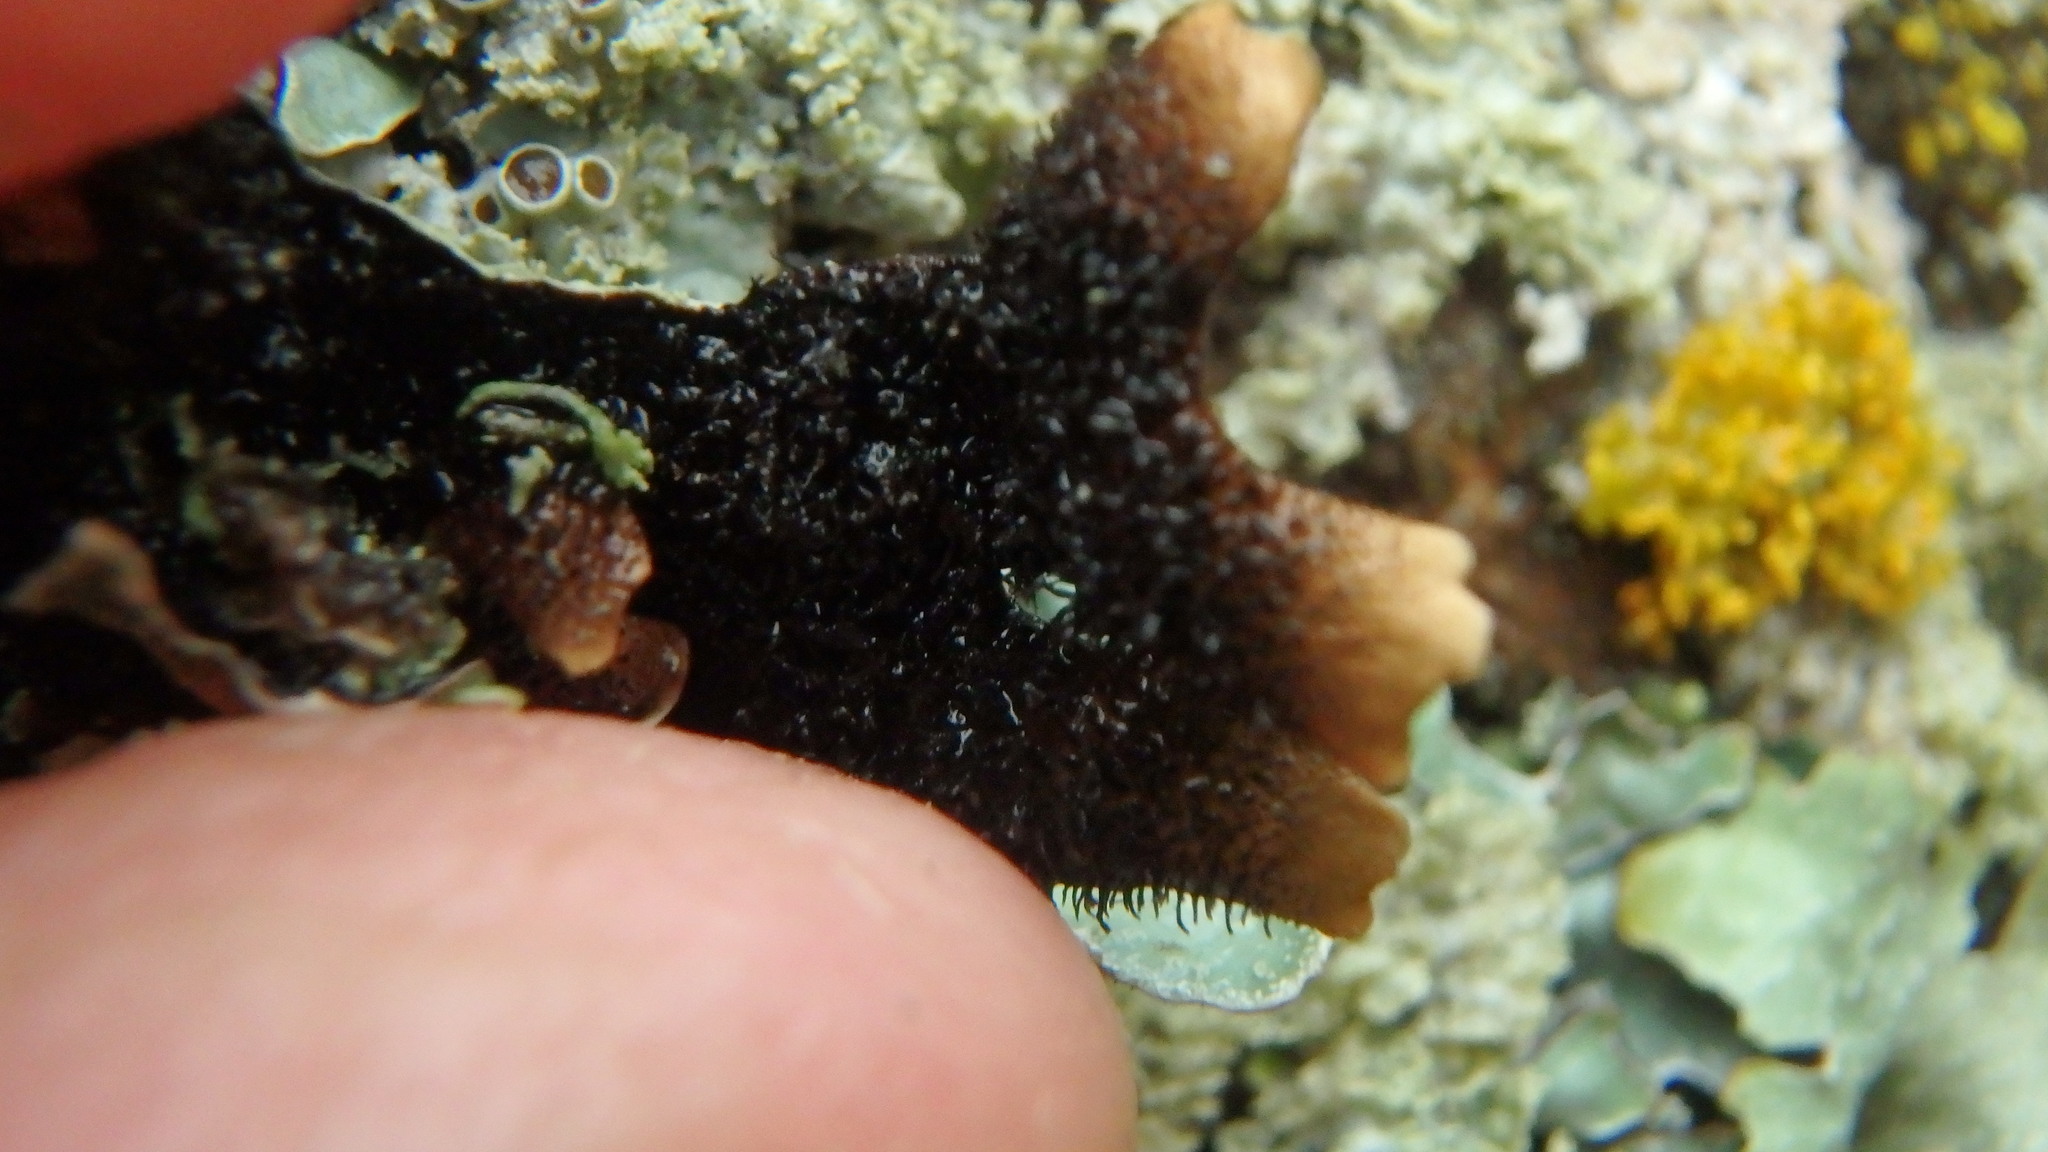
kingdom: Fungi
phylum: Ascomycota
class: Lecanoromycetes
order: Lecanorales
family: Parmeliaceae
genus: Parmelia
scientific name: Parmelia sulcata
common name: Netted shield lichen
